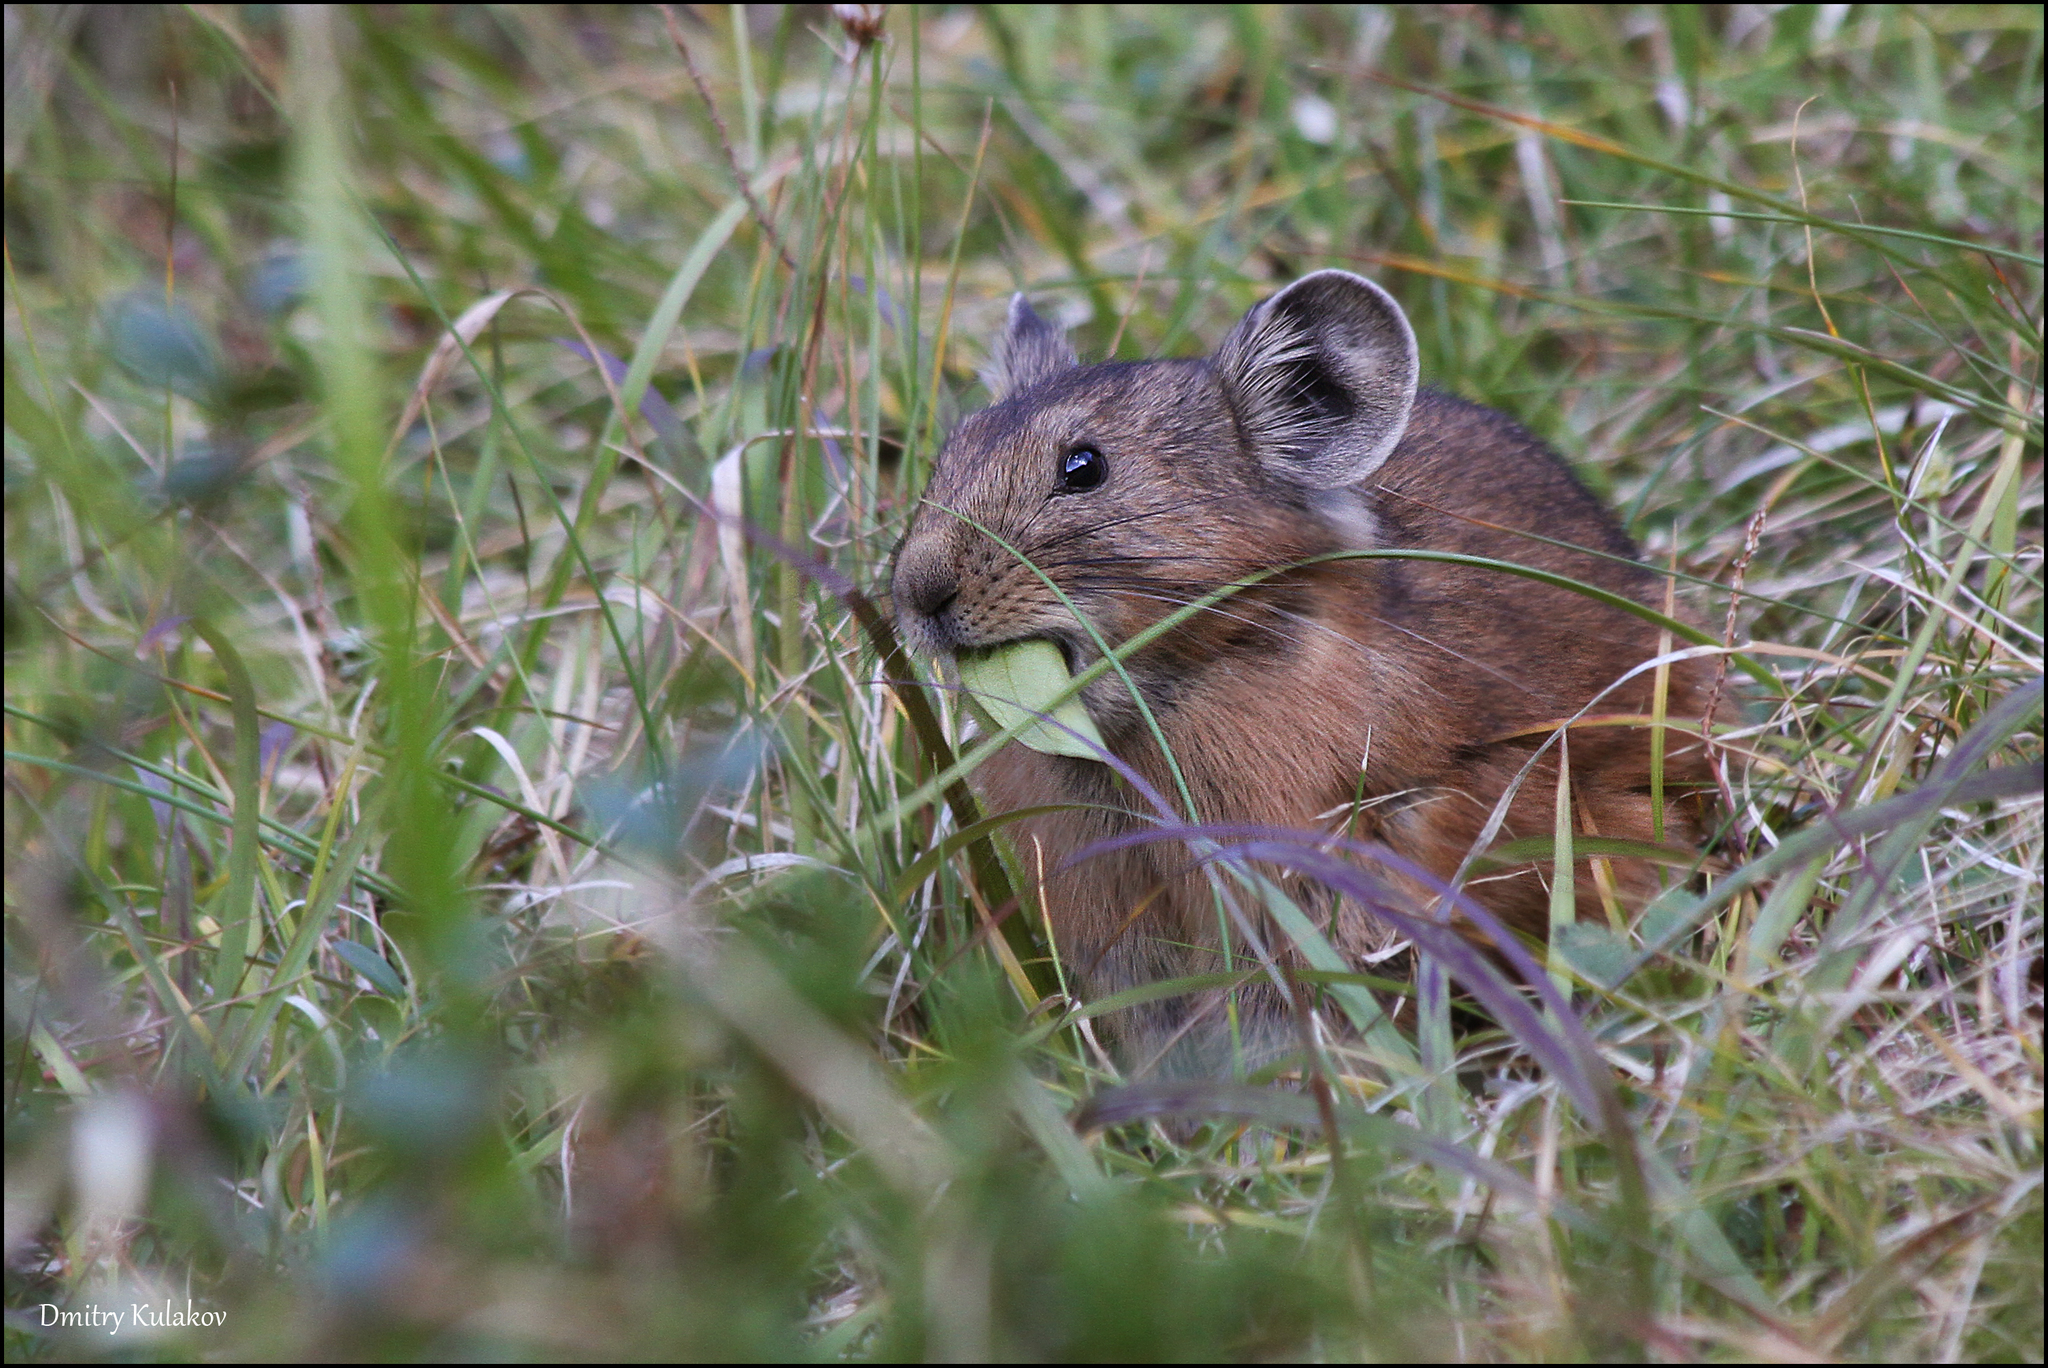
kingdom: Animalia
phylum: Chordata
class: Mammalia
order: Lagomorpha
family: Ochotonidae
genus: Ochotona
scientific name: Ochotona alpina
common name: Alpine pika
